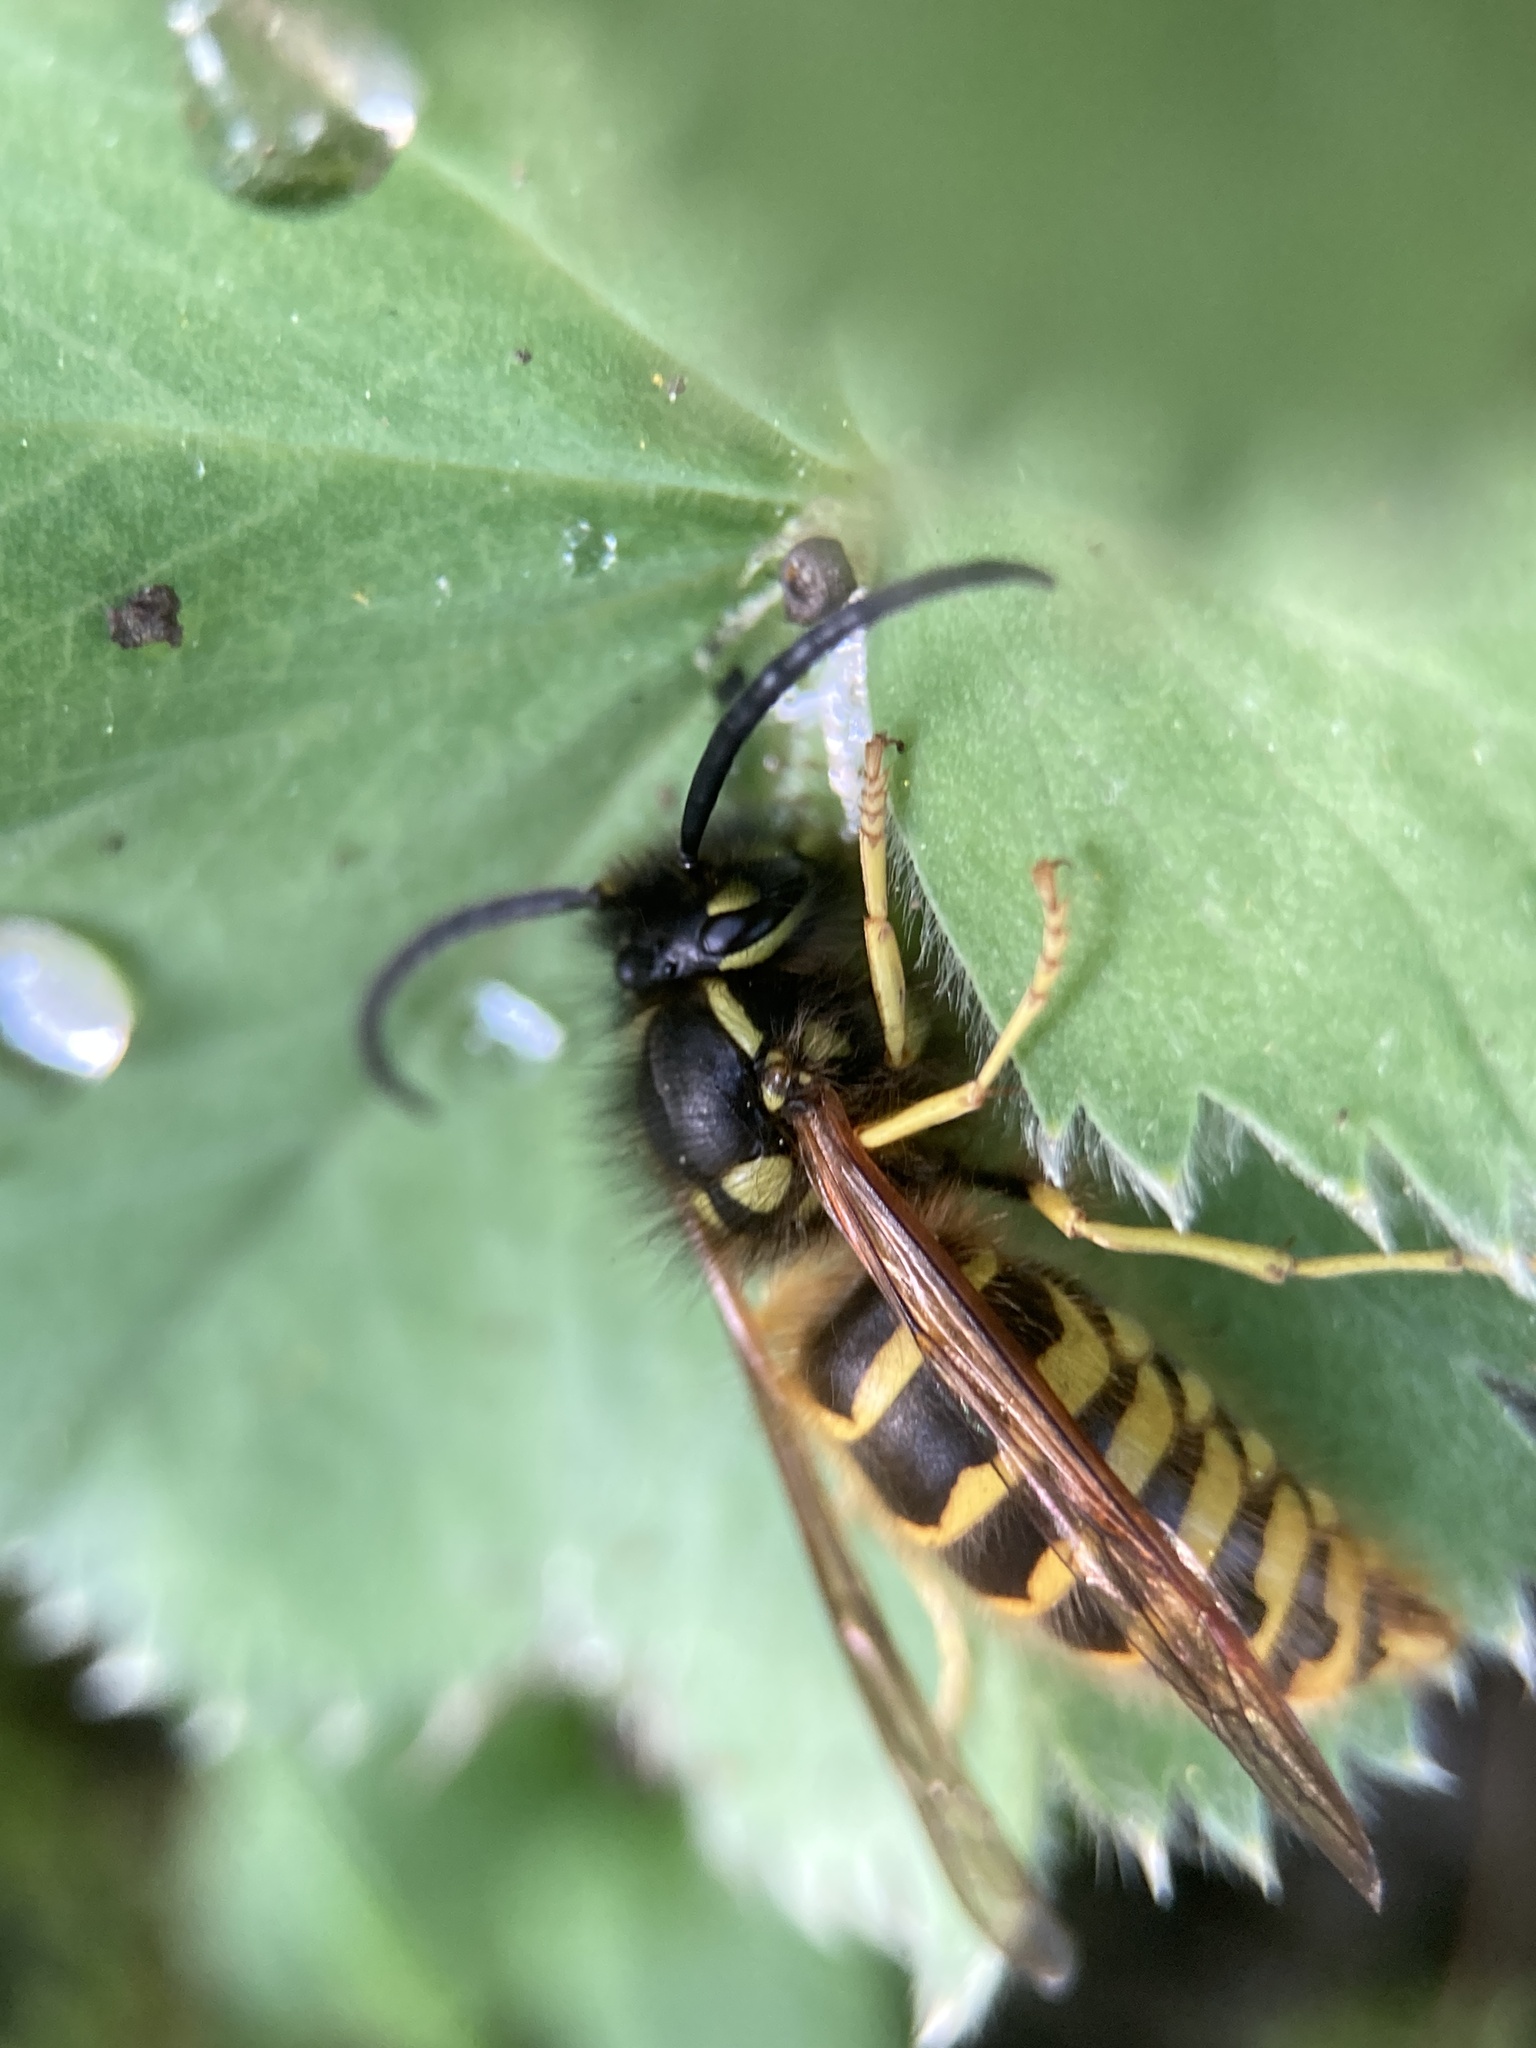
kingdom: Animalia
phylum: Arthropoda
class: Insecta
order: Hymenoptera
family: Vespidae
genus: Vespula
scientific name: Vespula vulgaris
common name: Common wasp
